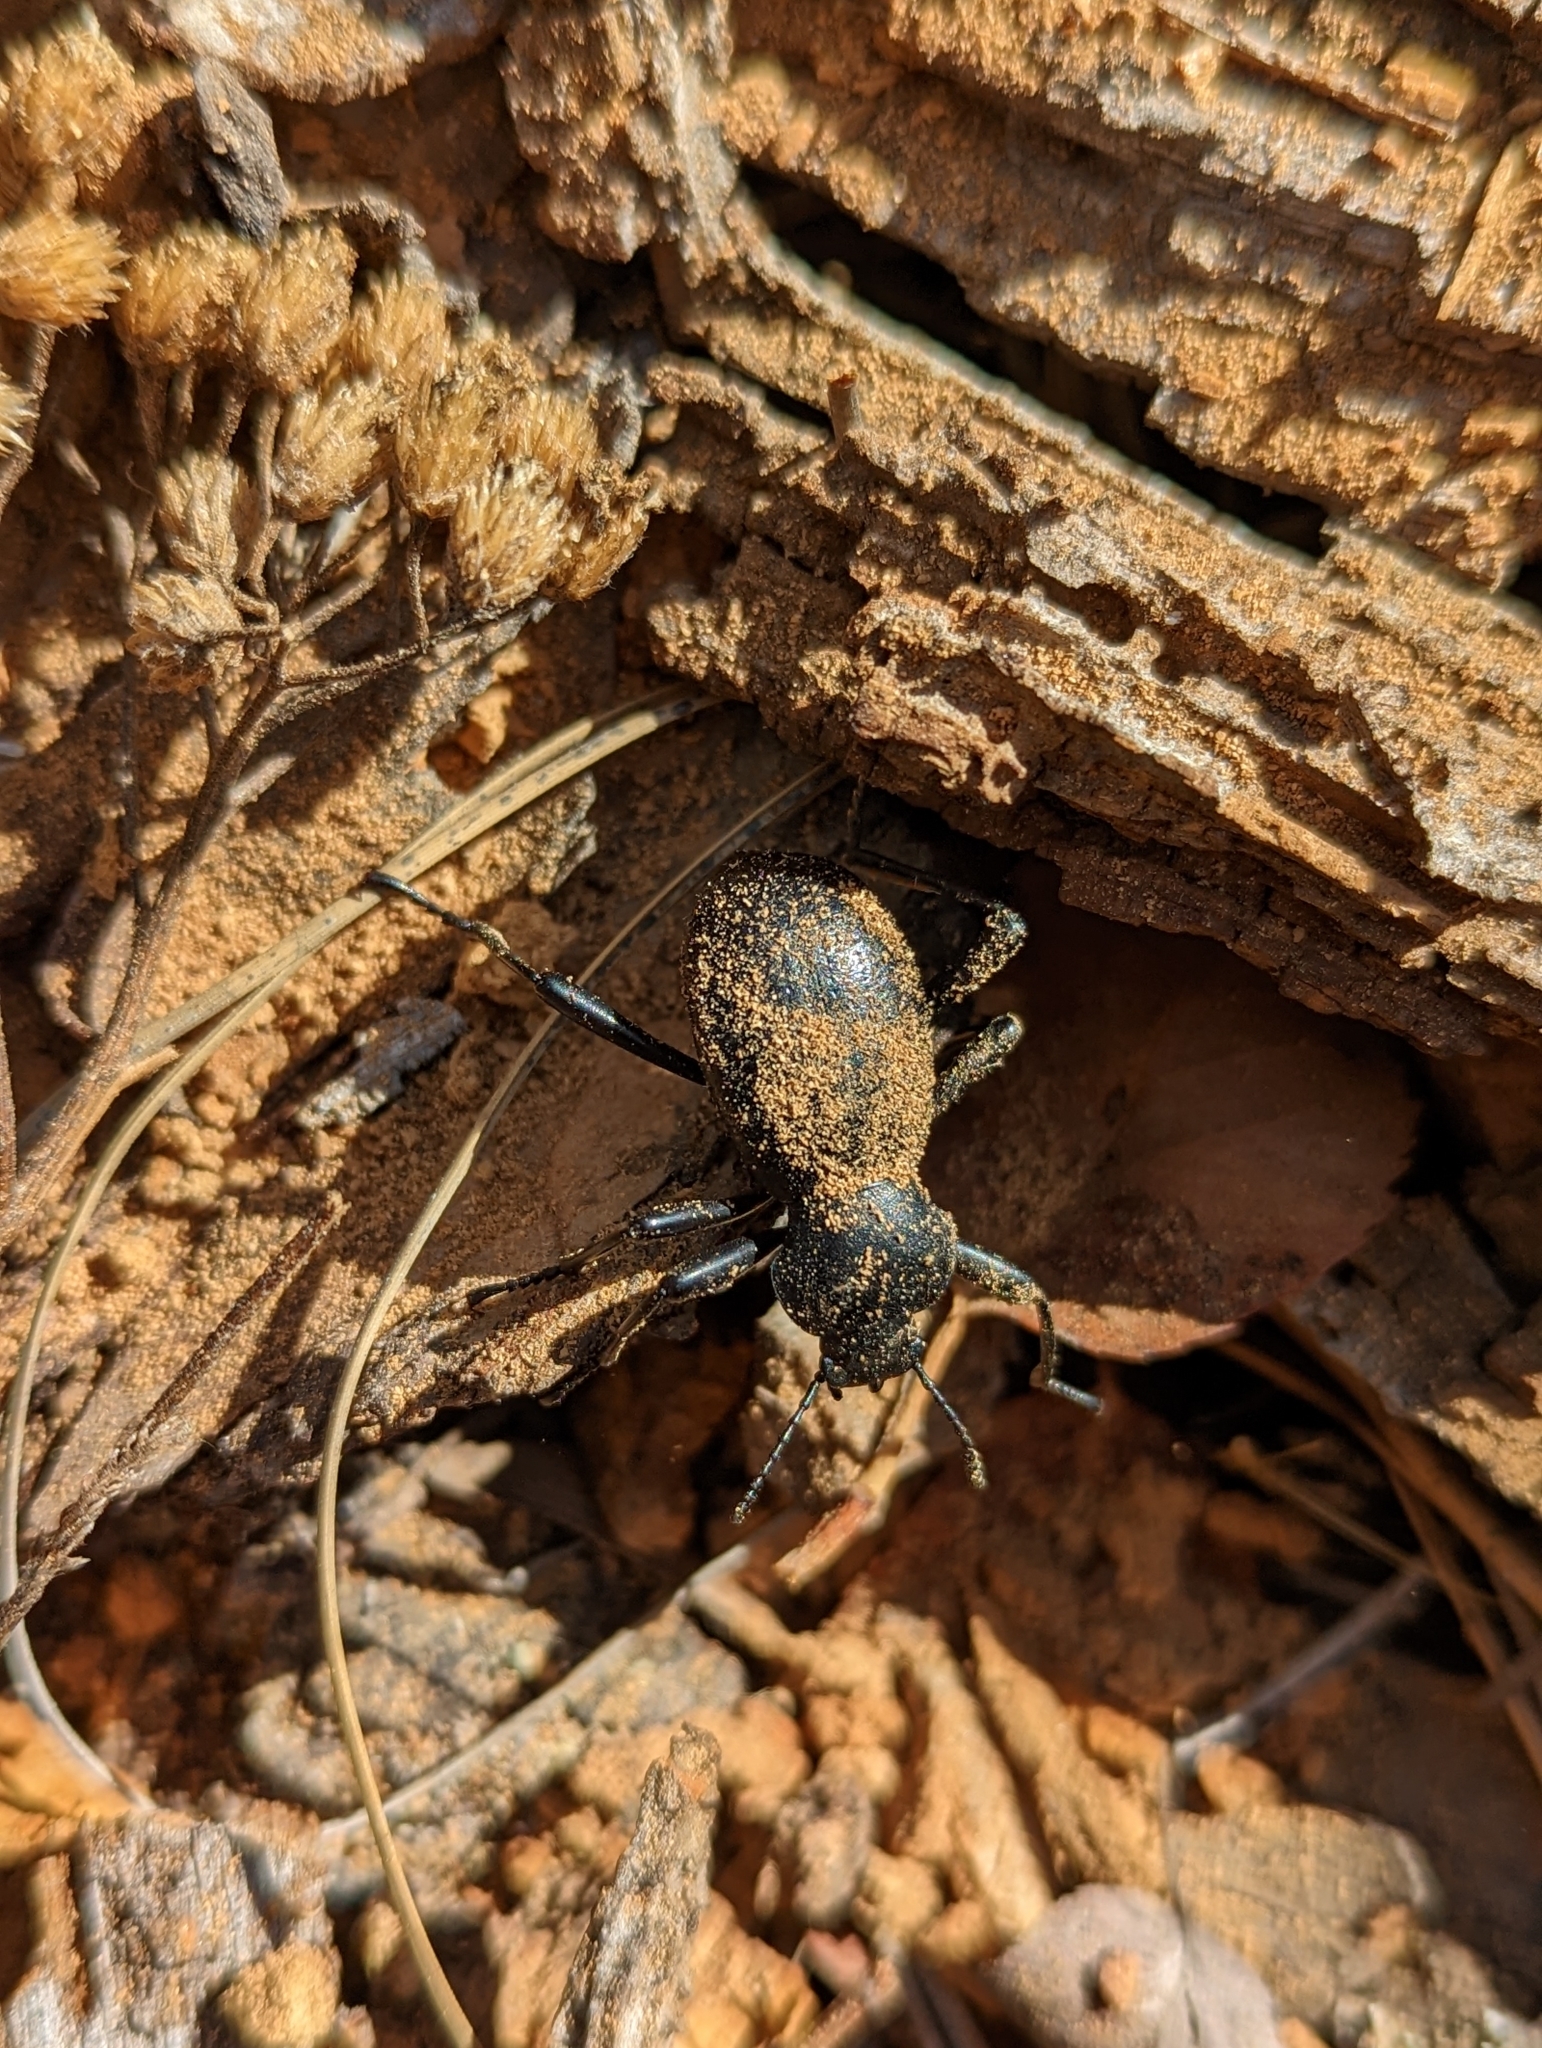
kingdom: Animalia
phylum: Arthropoda
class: Insecta
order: Coleoptera
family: Tenebrionidae
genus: Coelocnemis
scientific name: Coelocnemis dilaticollis
